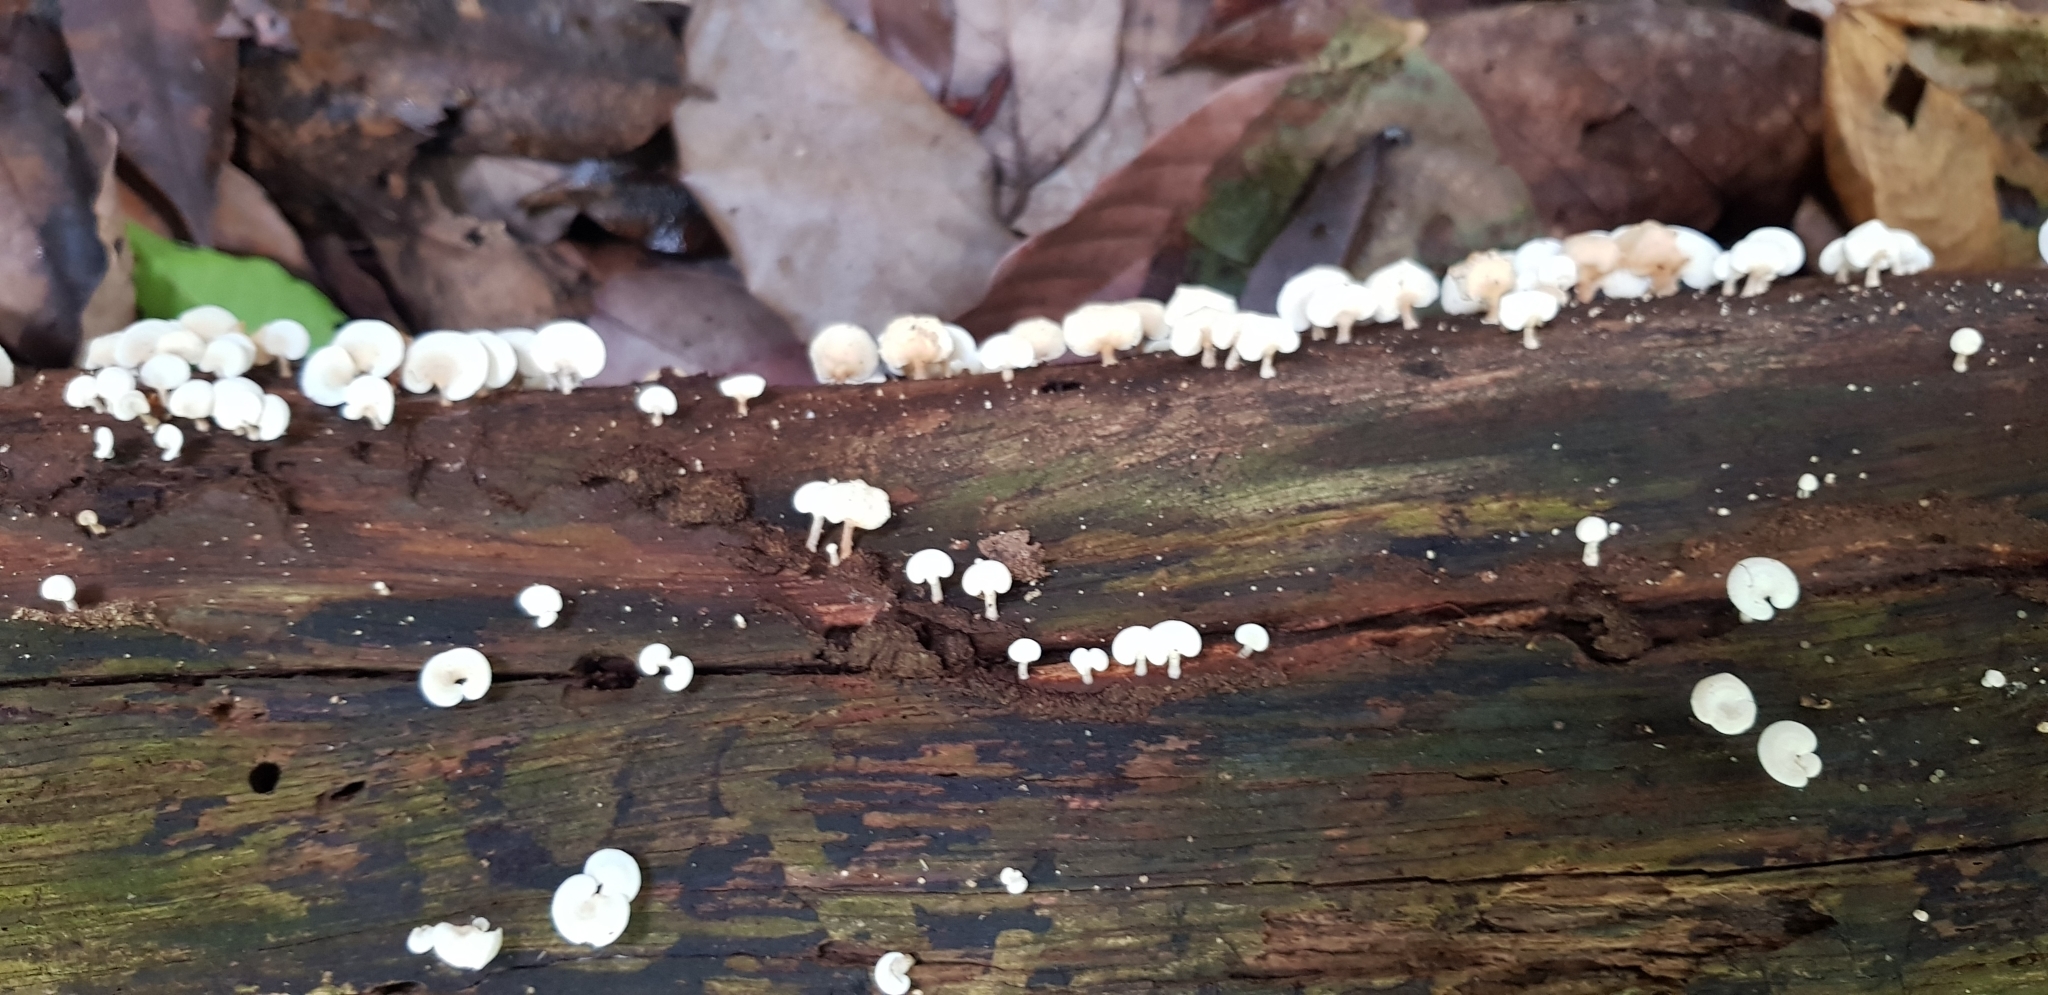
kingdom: Fungi
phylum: Basidiomycota
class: Agaricomycetes
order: Agaricales
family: Mycenaceae
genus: Panellus
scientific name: Panellus pusillus
